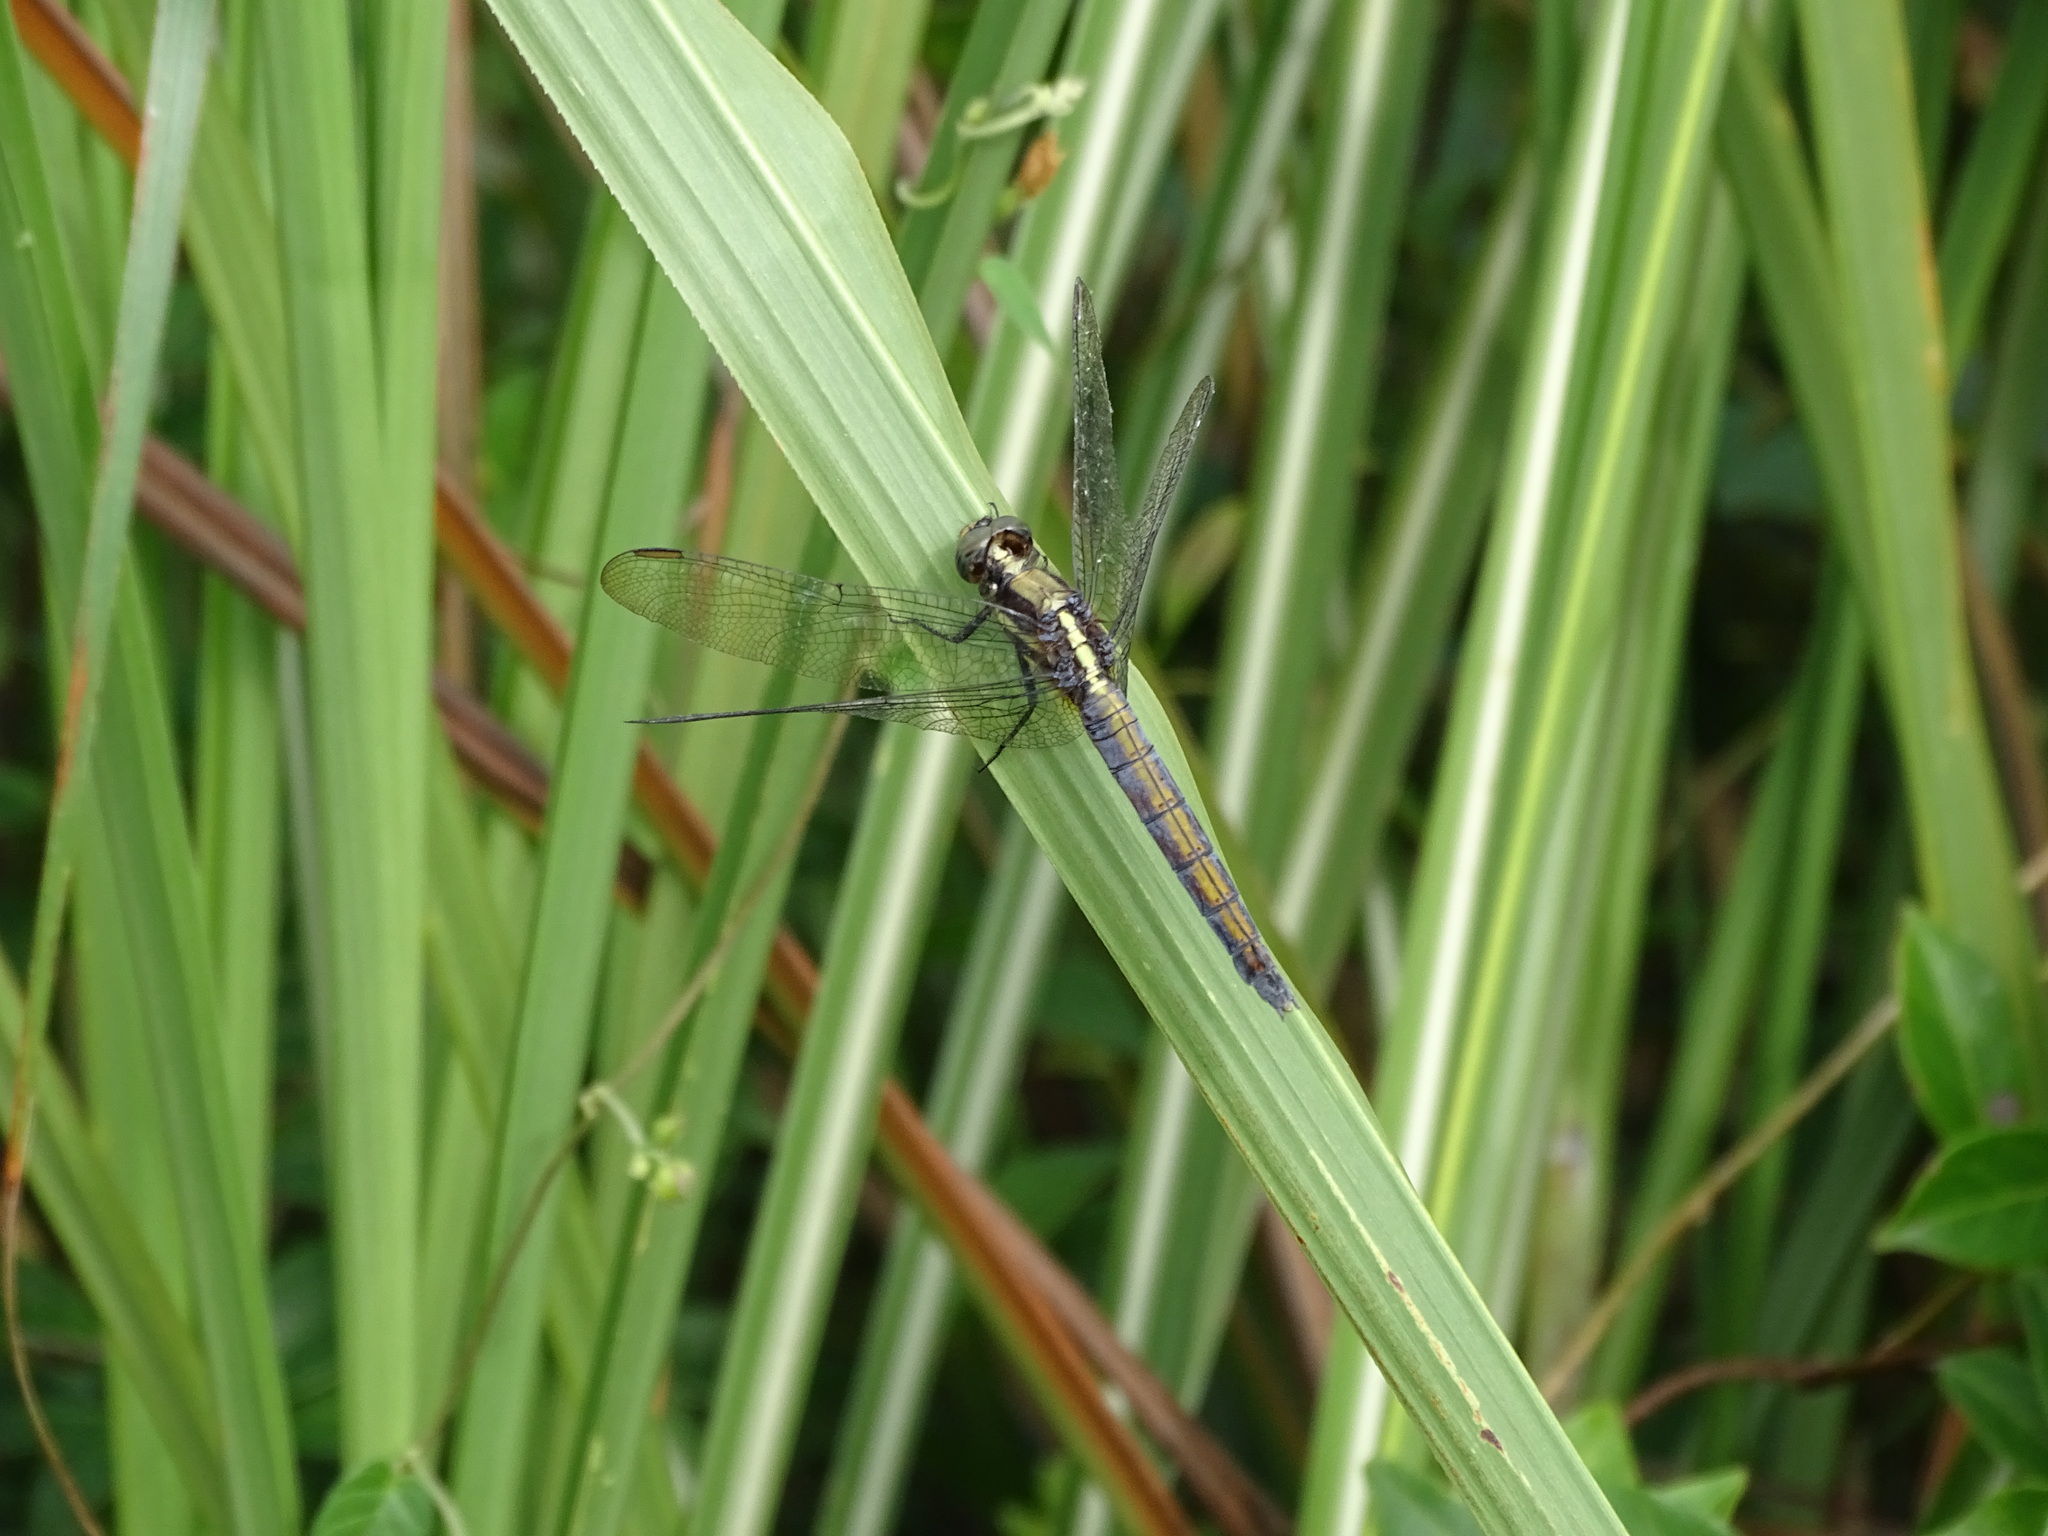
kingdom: Animalia
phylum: Arthropoda
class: Insecta
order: Odonata
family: Libellulidae
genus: Orthetrum
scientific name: Orthetrum glaucum
